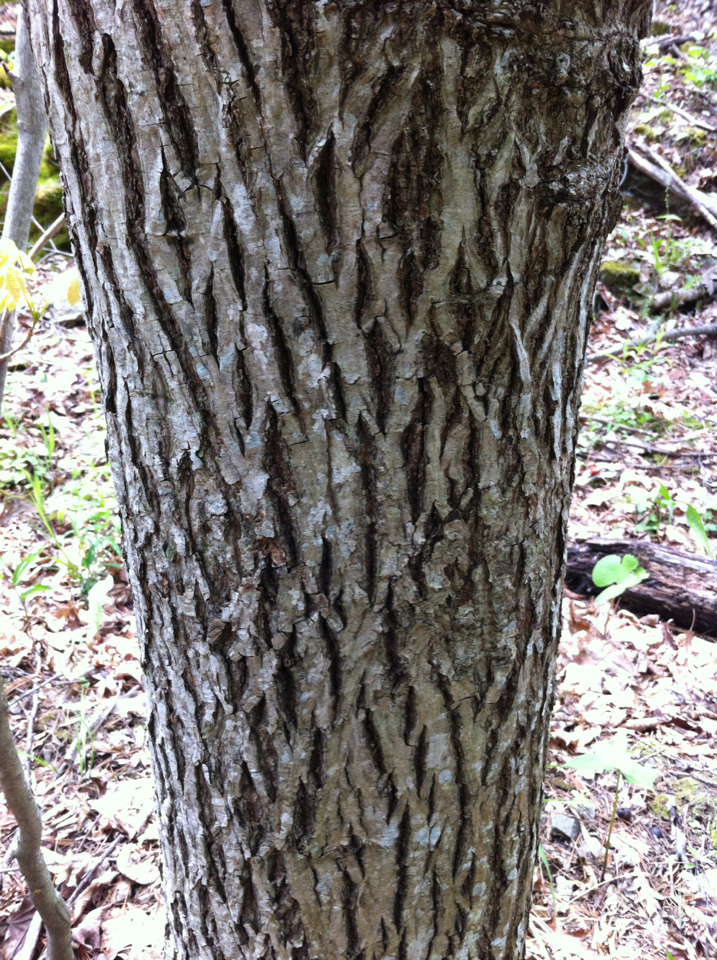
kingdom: Plantae
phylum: Tracheophyta
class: Magnoliopsida
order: Fagales
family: Juglandaceae
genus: Juglans
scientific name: Juglans cinerea
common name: Butternut
